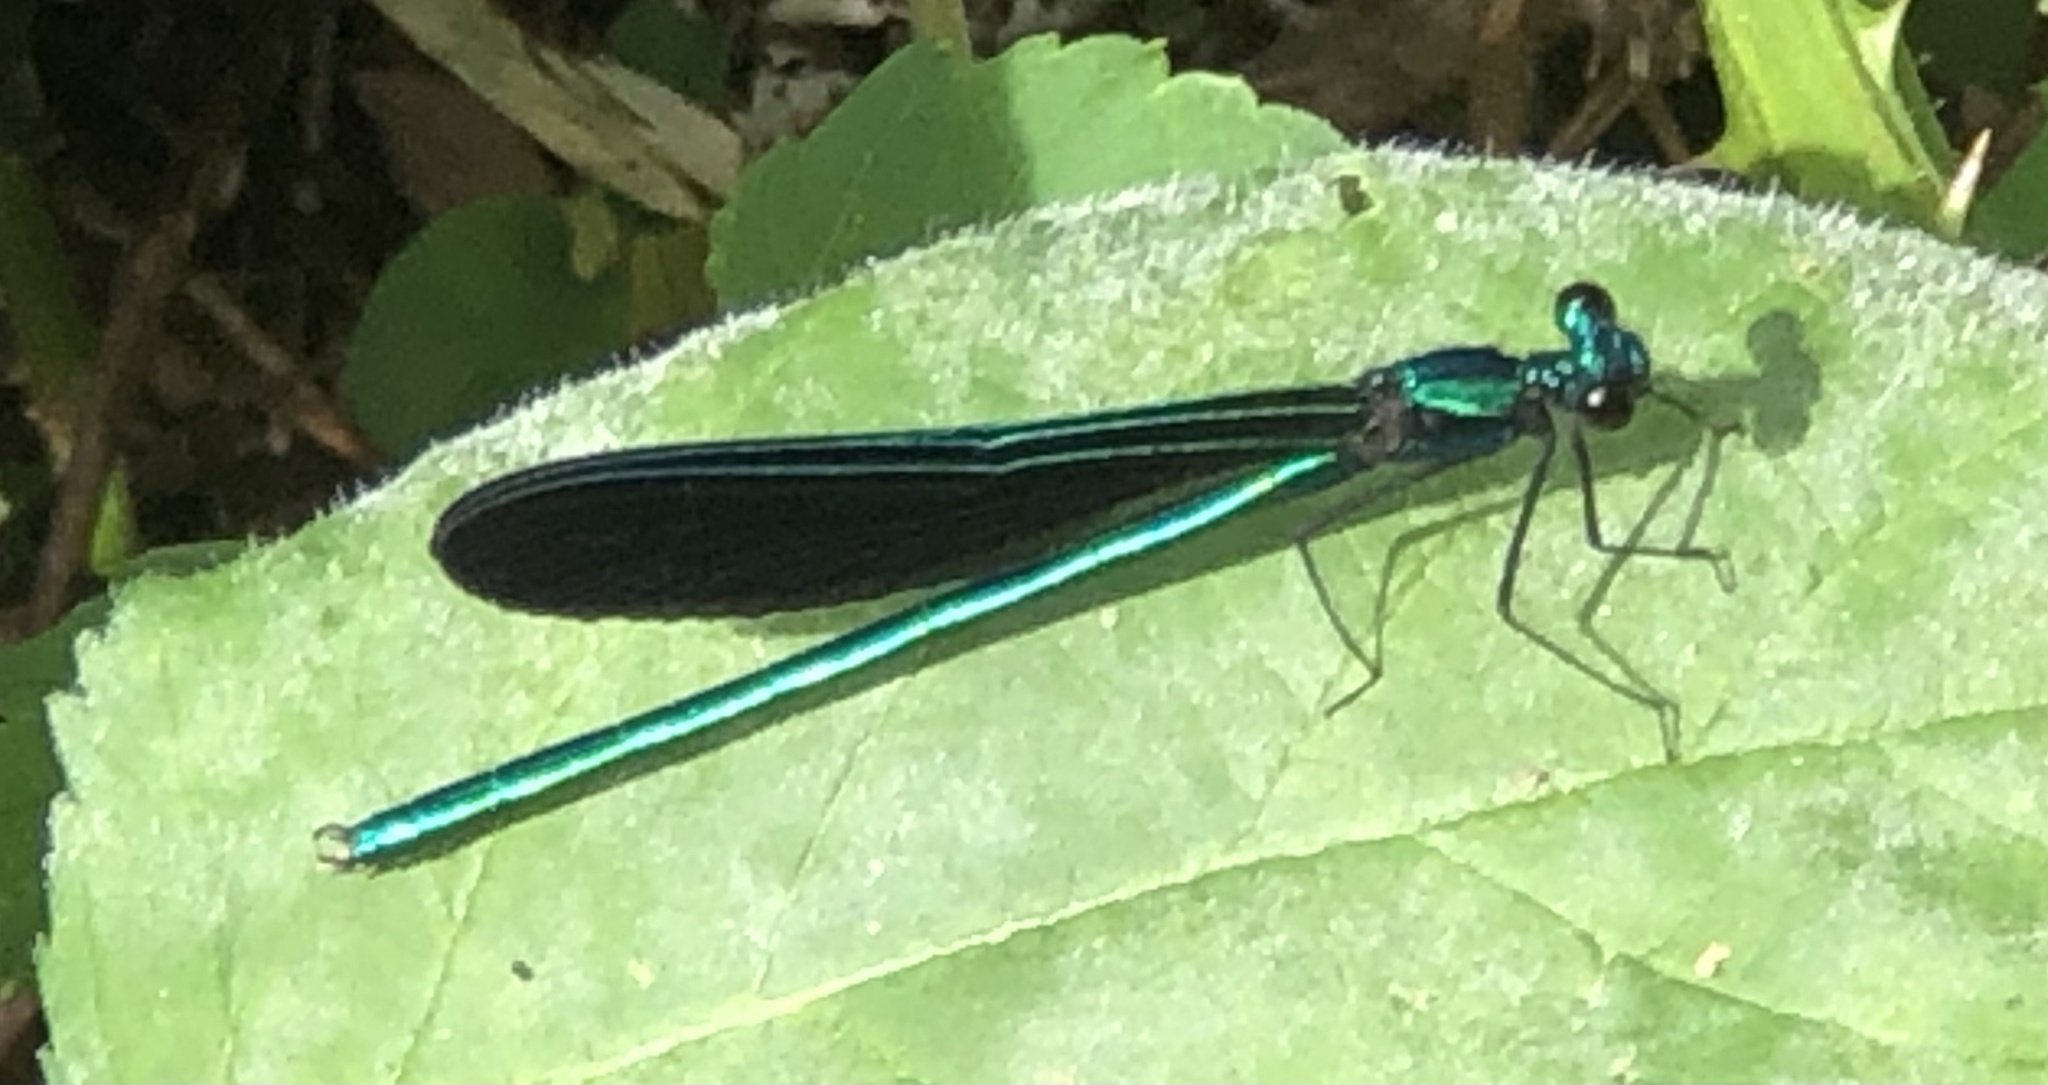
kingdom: Animalia
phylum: Arthropoda
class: Insecta
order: Odonata
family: Calopterygidae
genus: Calopteryx
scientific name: Calopteryx maculata
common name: Ebony jewelwing
